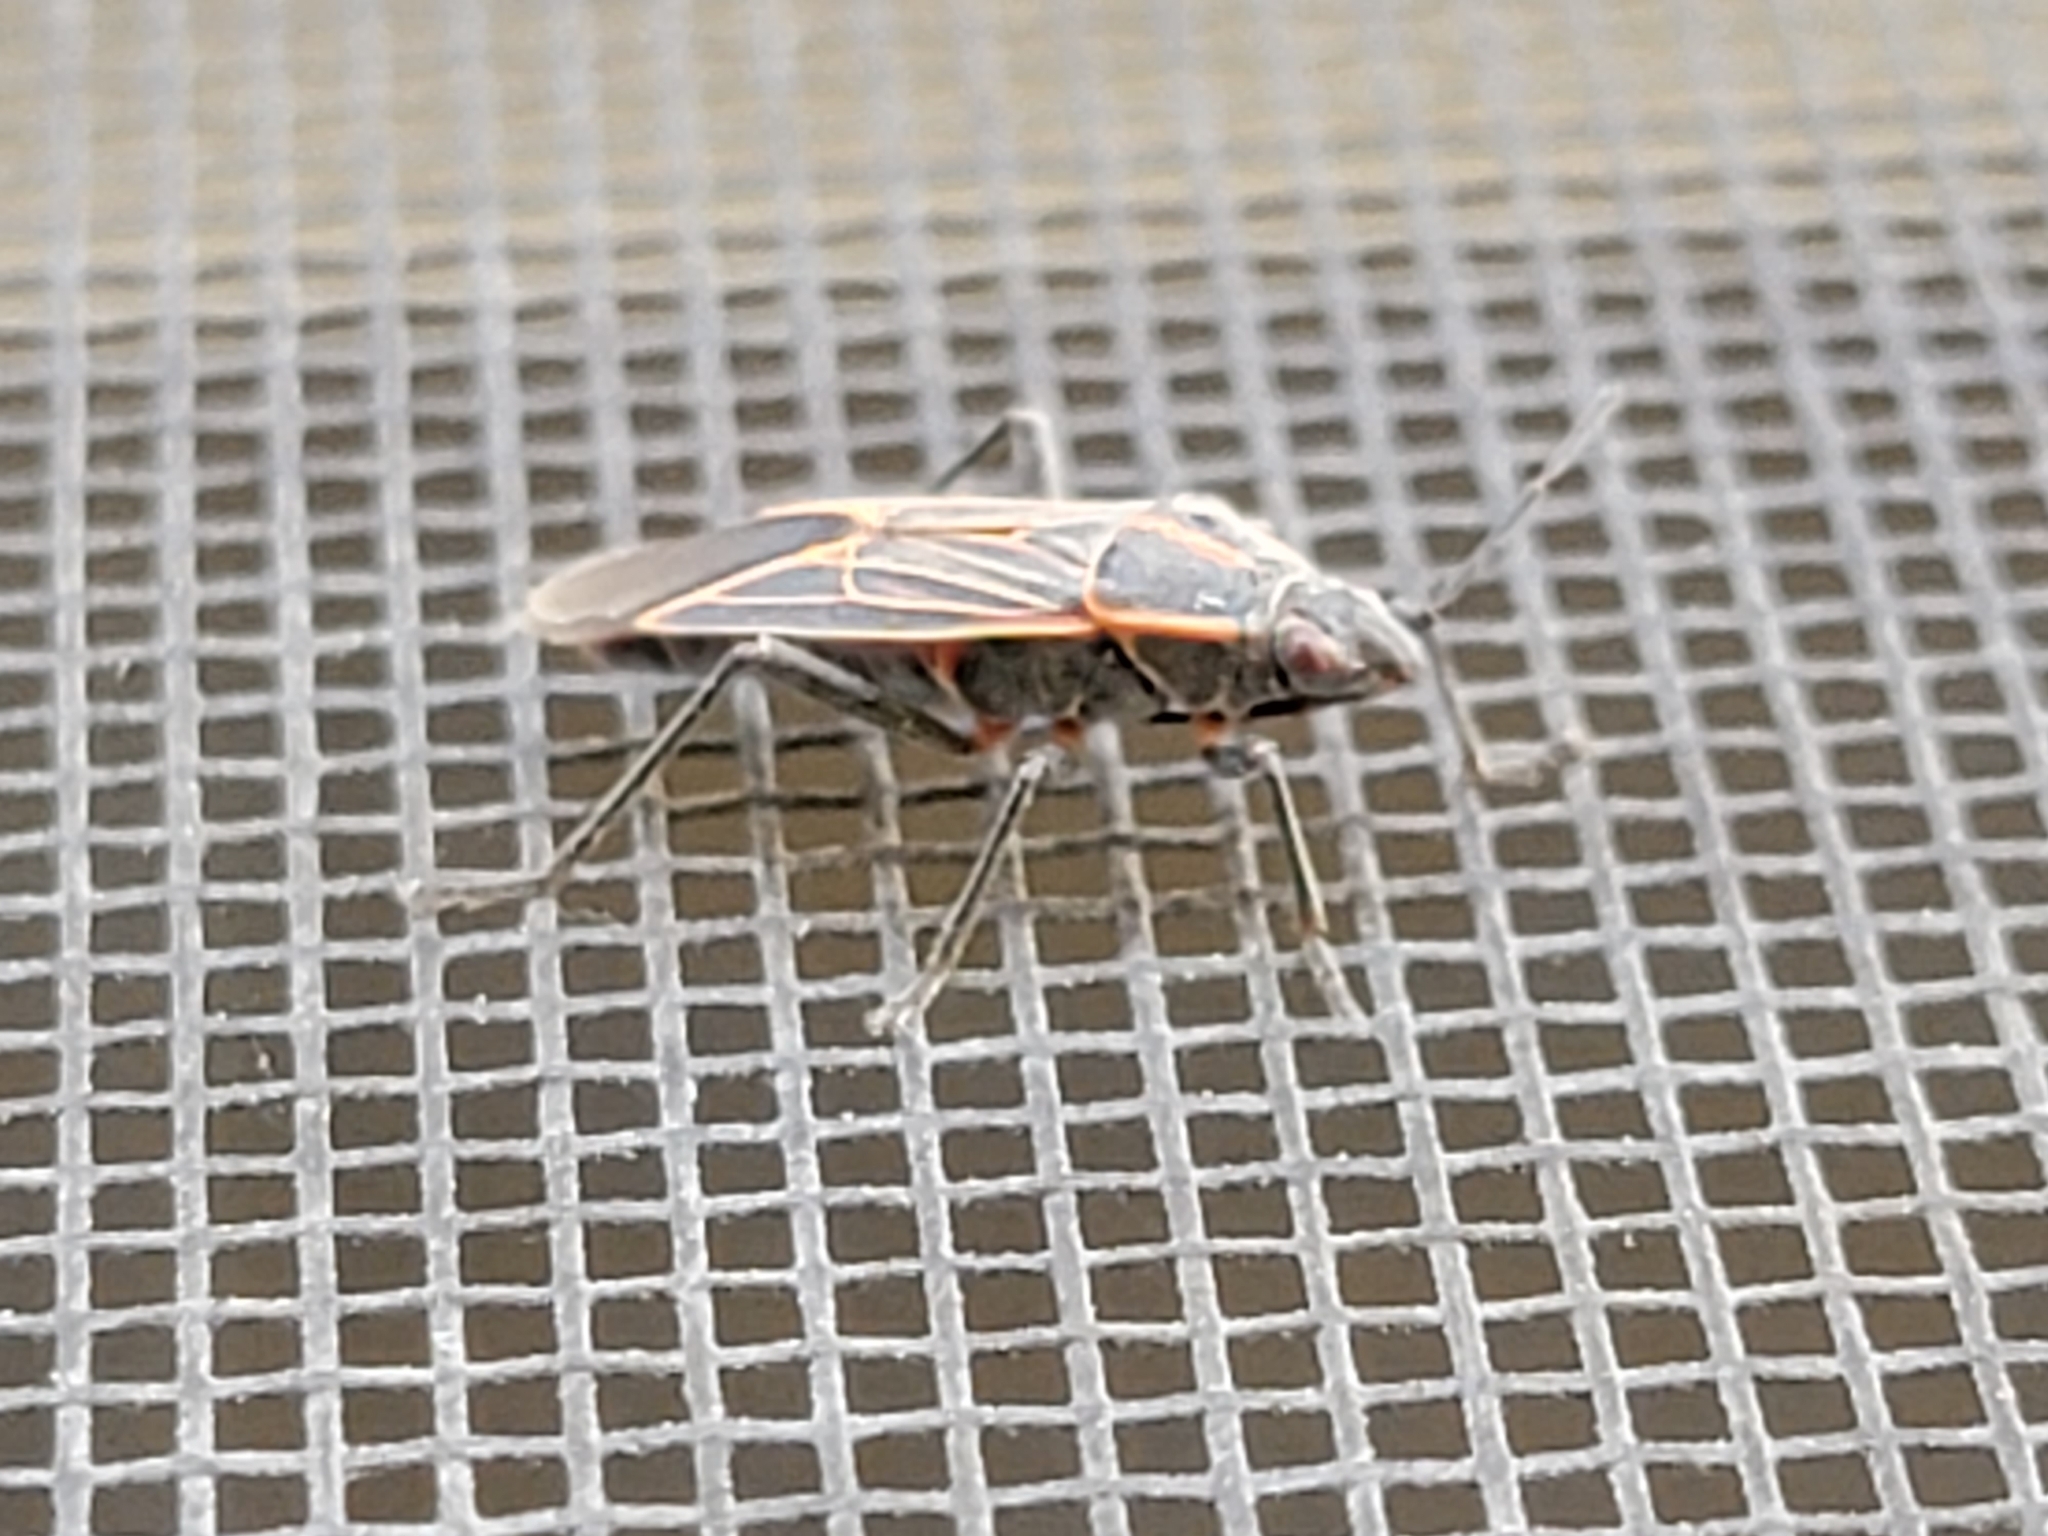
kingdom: Animalia
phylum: Arthropoda
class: Insecta
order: Hemiptera
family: Rhopalidae
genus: Boisea
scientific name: Boisea rubrolineata
